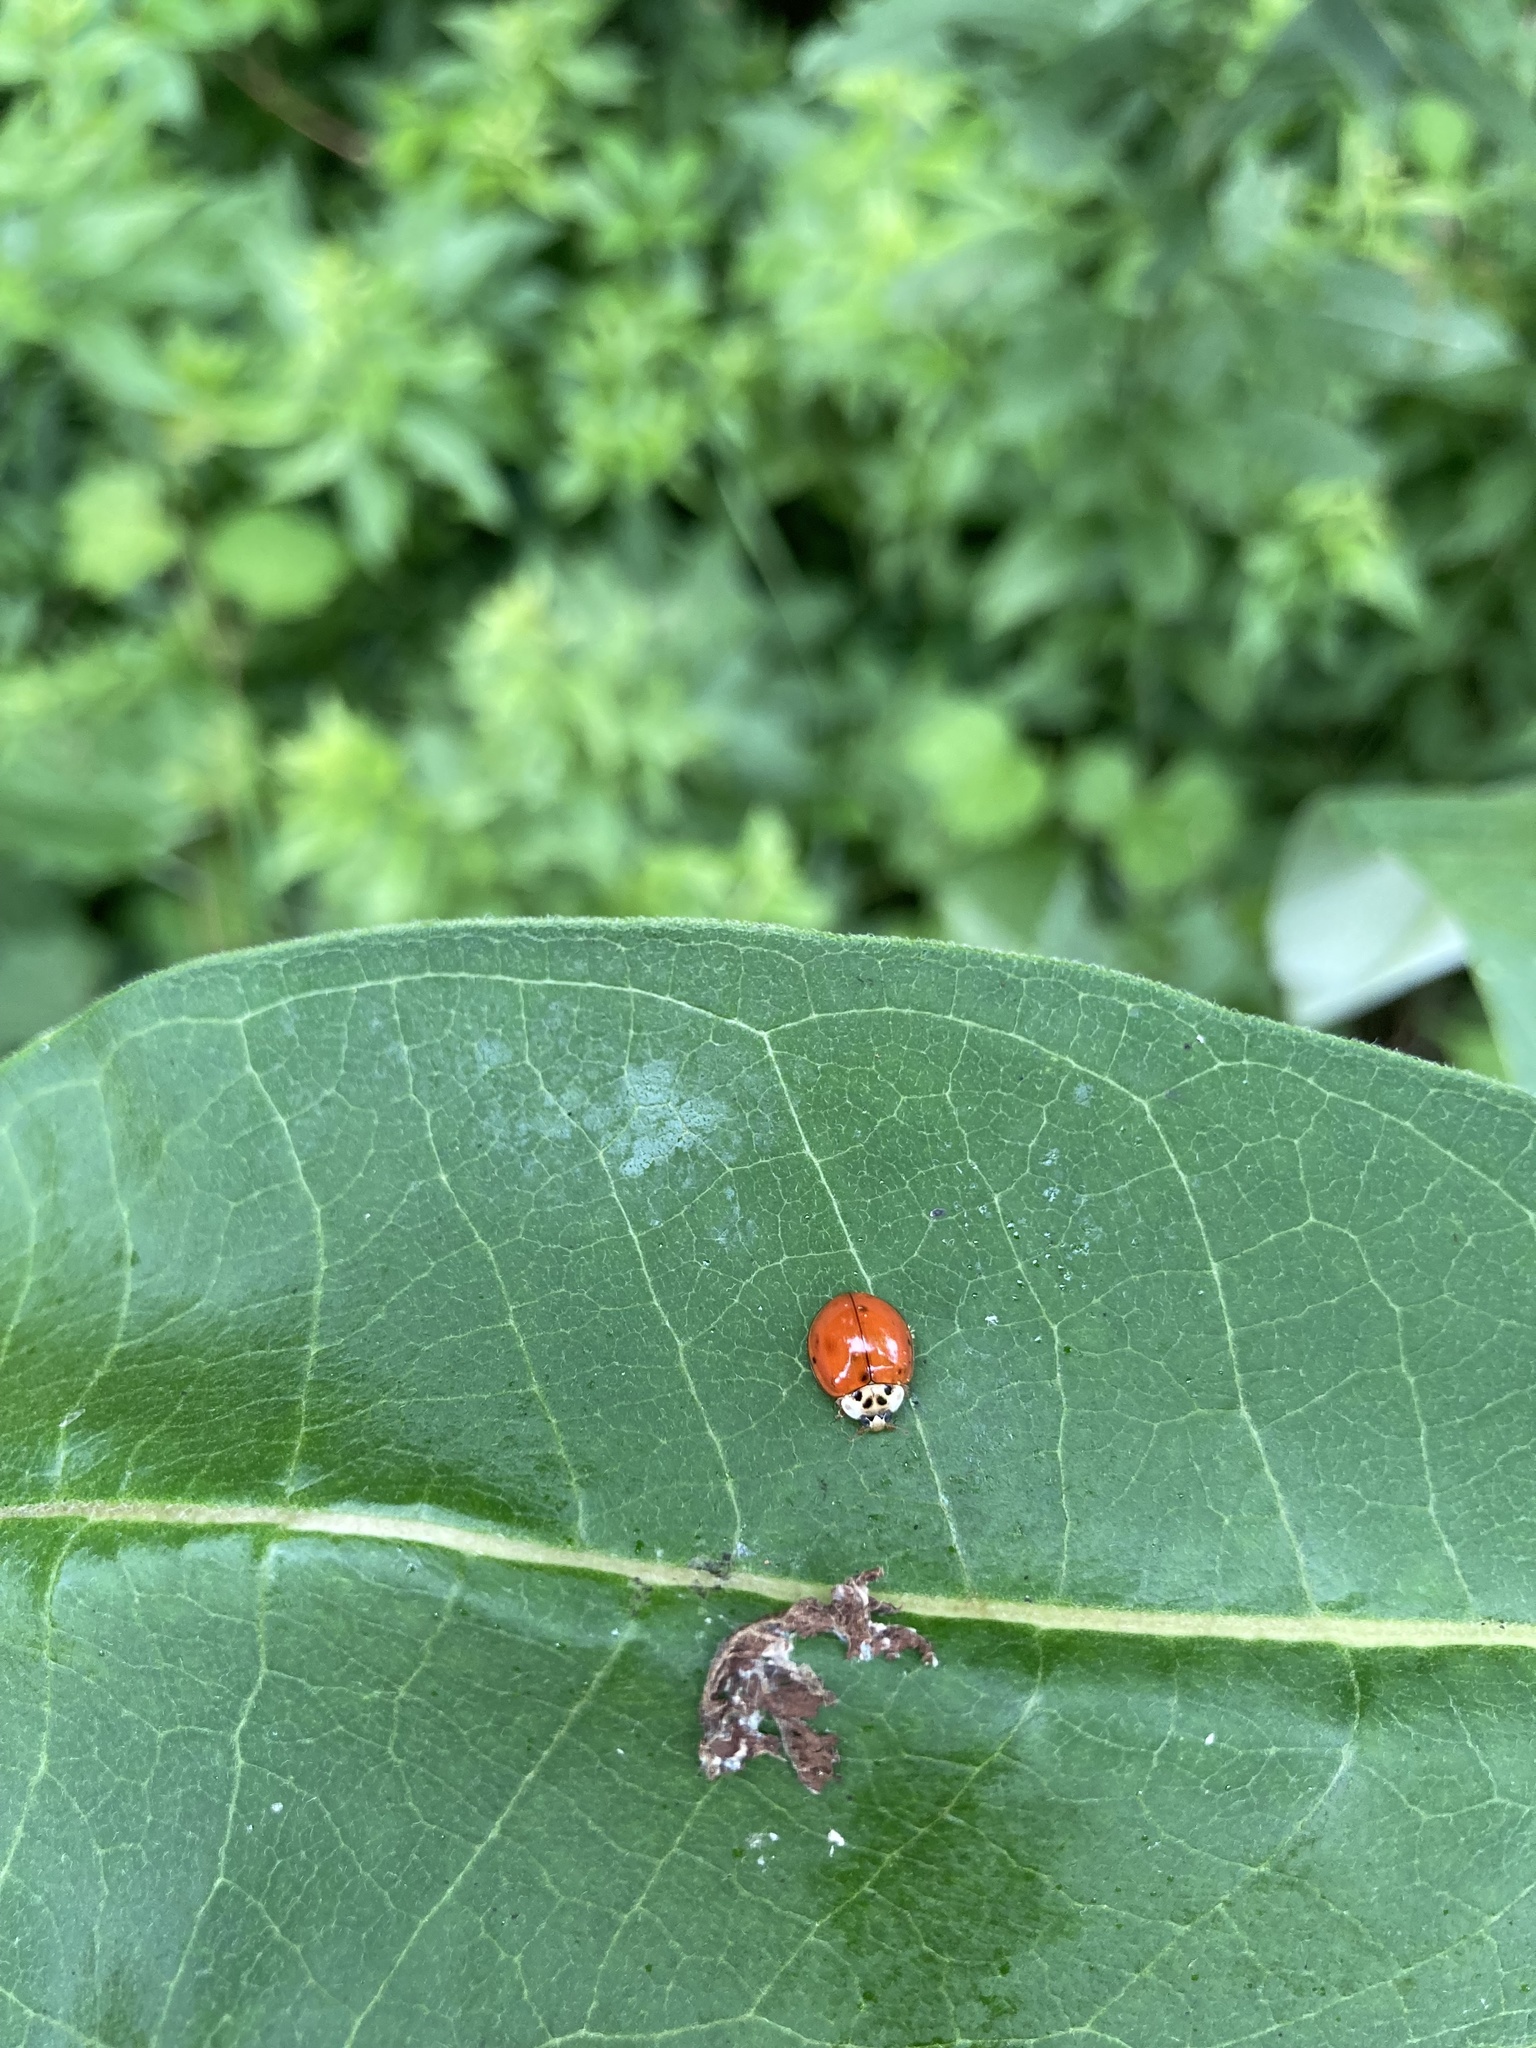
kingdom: Animalia
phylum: Arthropoda
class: Insecta
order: Coleoptera
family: Coccinellidae
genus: Harmonia
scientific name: Harmonia axyridis
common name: Harlequin ladybird
